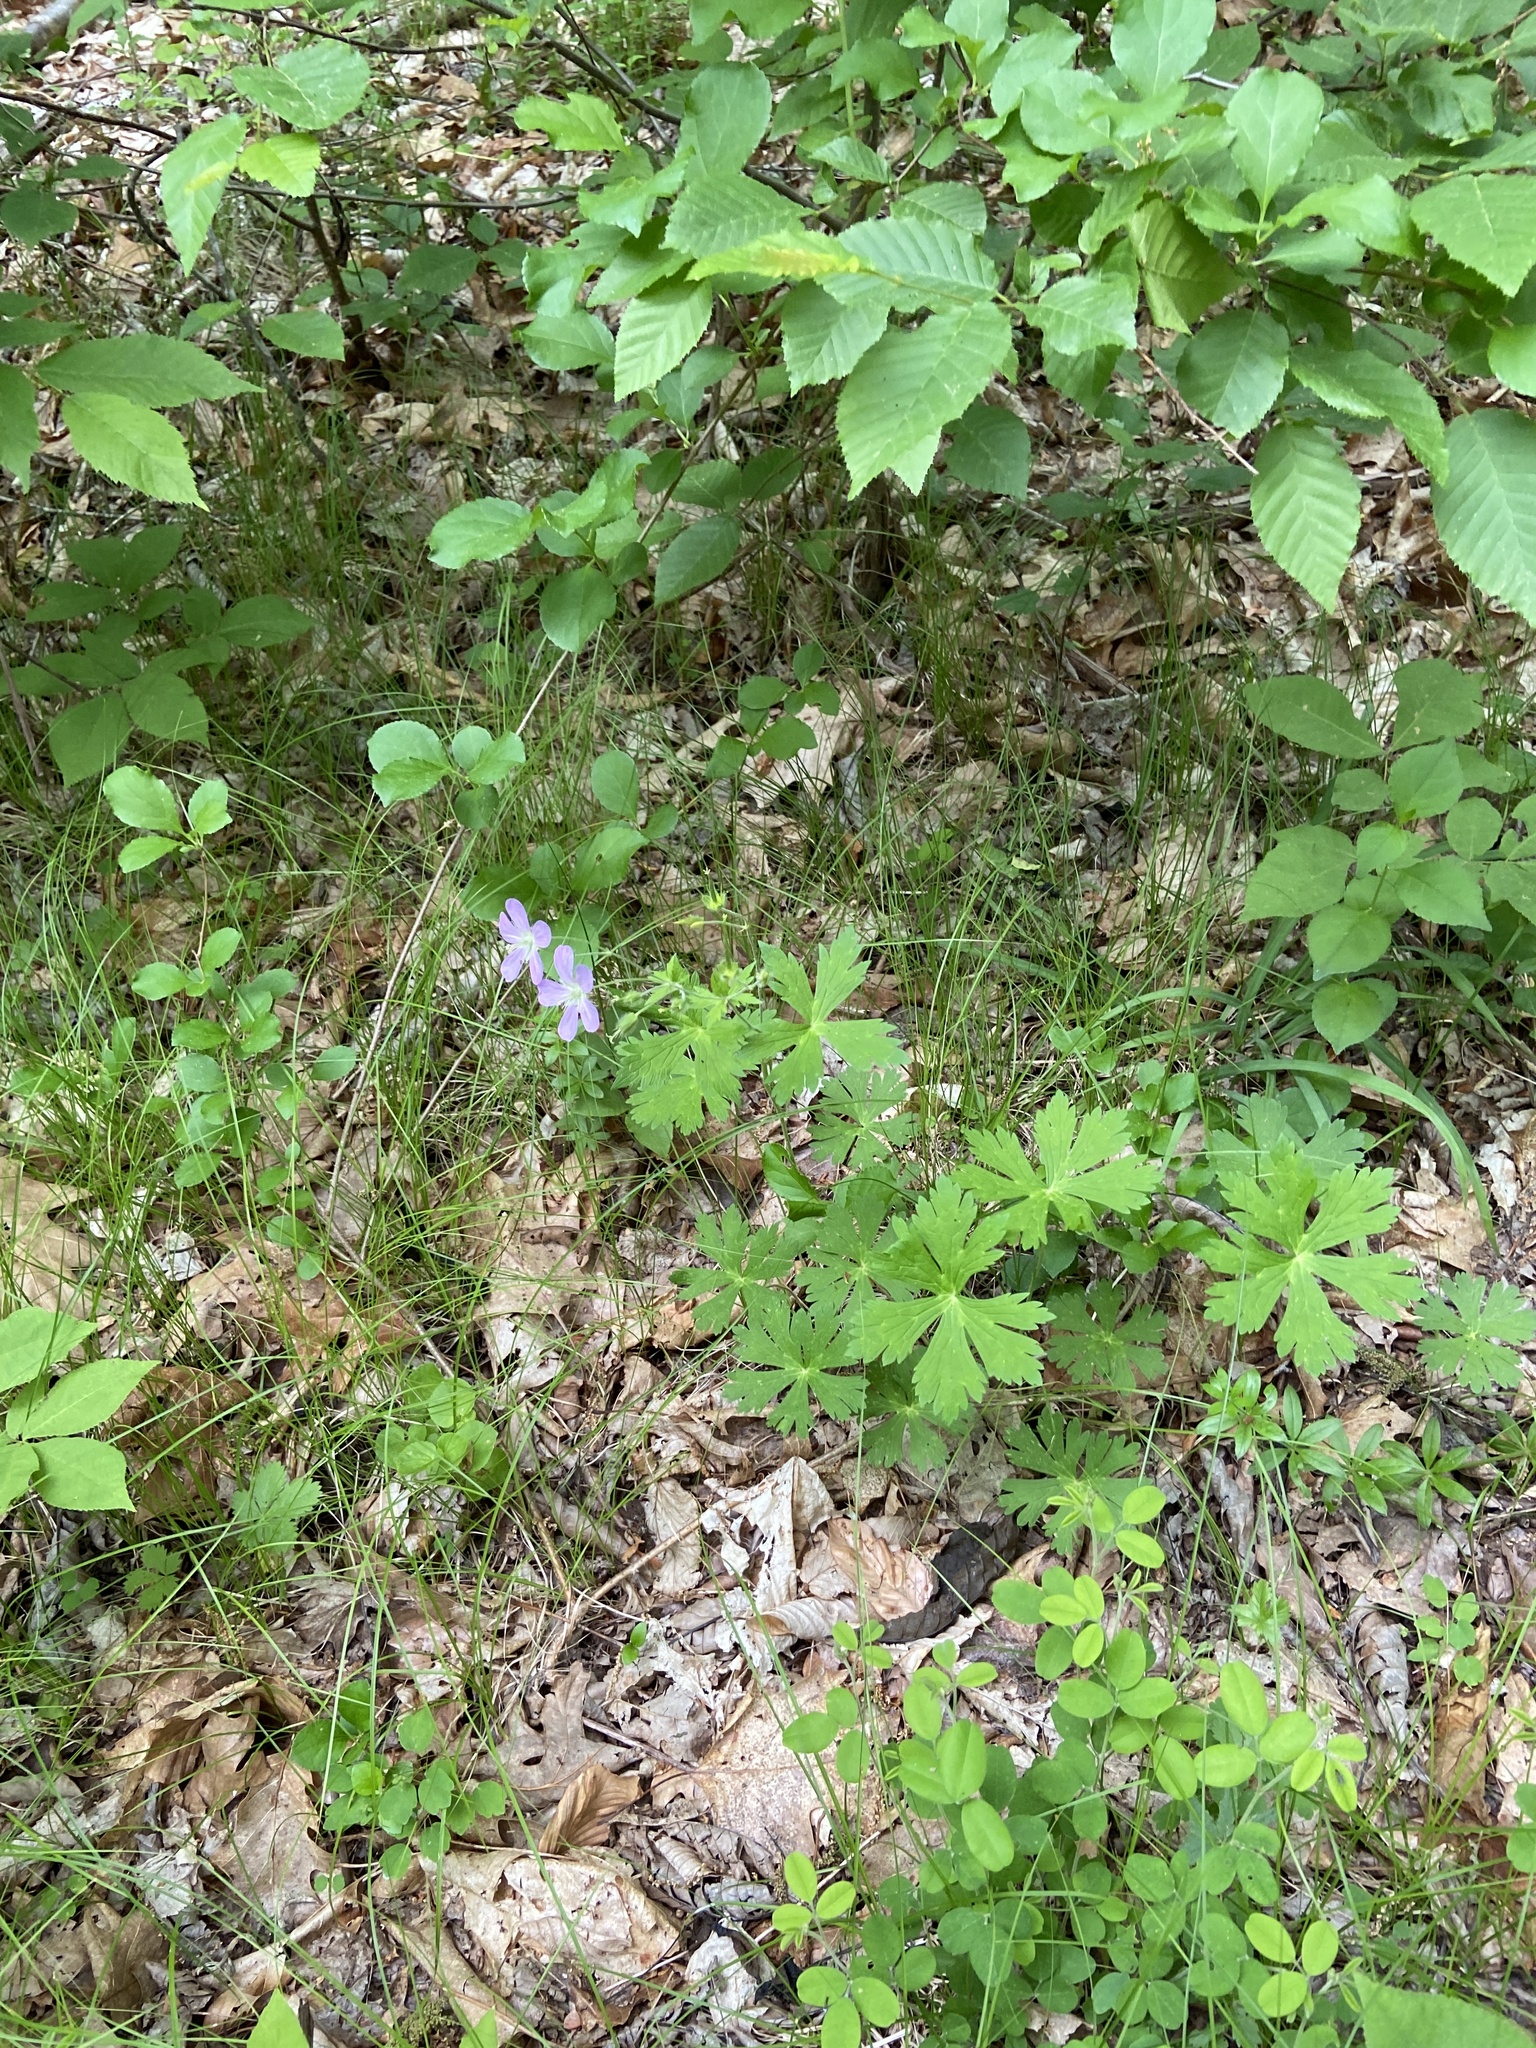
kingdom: Plantae
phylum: Tracheophyta
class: Magnoliopsida
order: Geraniales
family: Geraniaceae
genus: Geranium
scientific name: Geranium maculatum
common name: Spotted geranium
